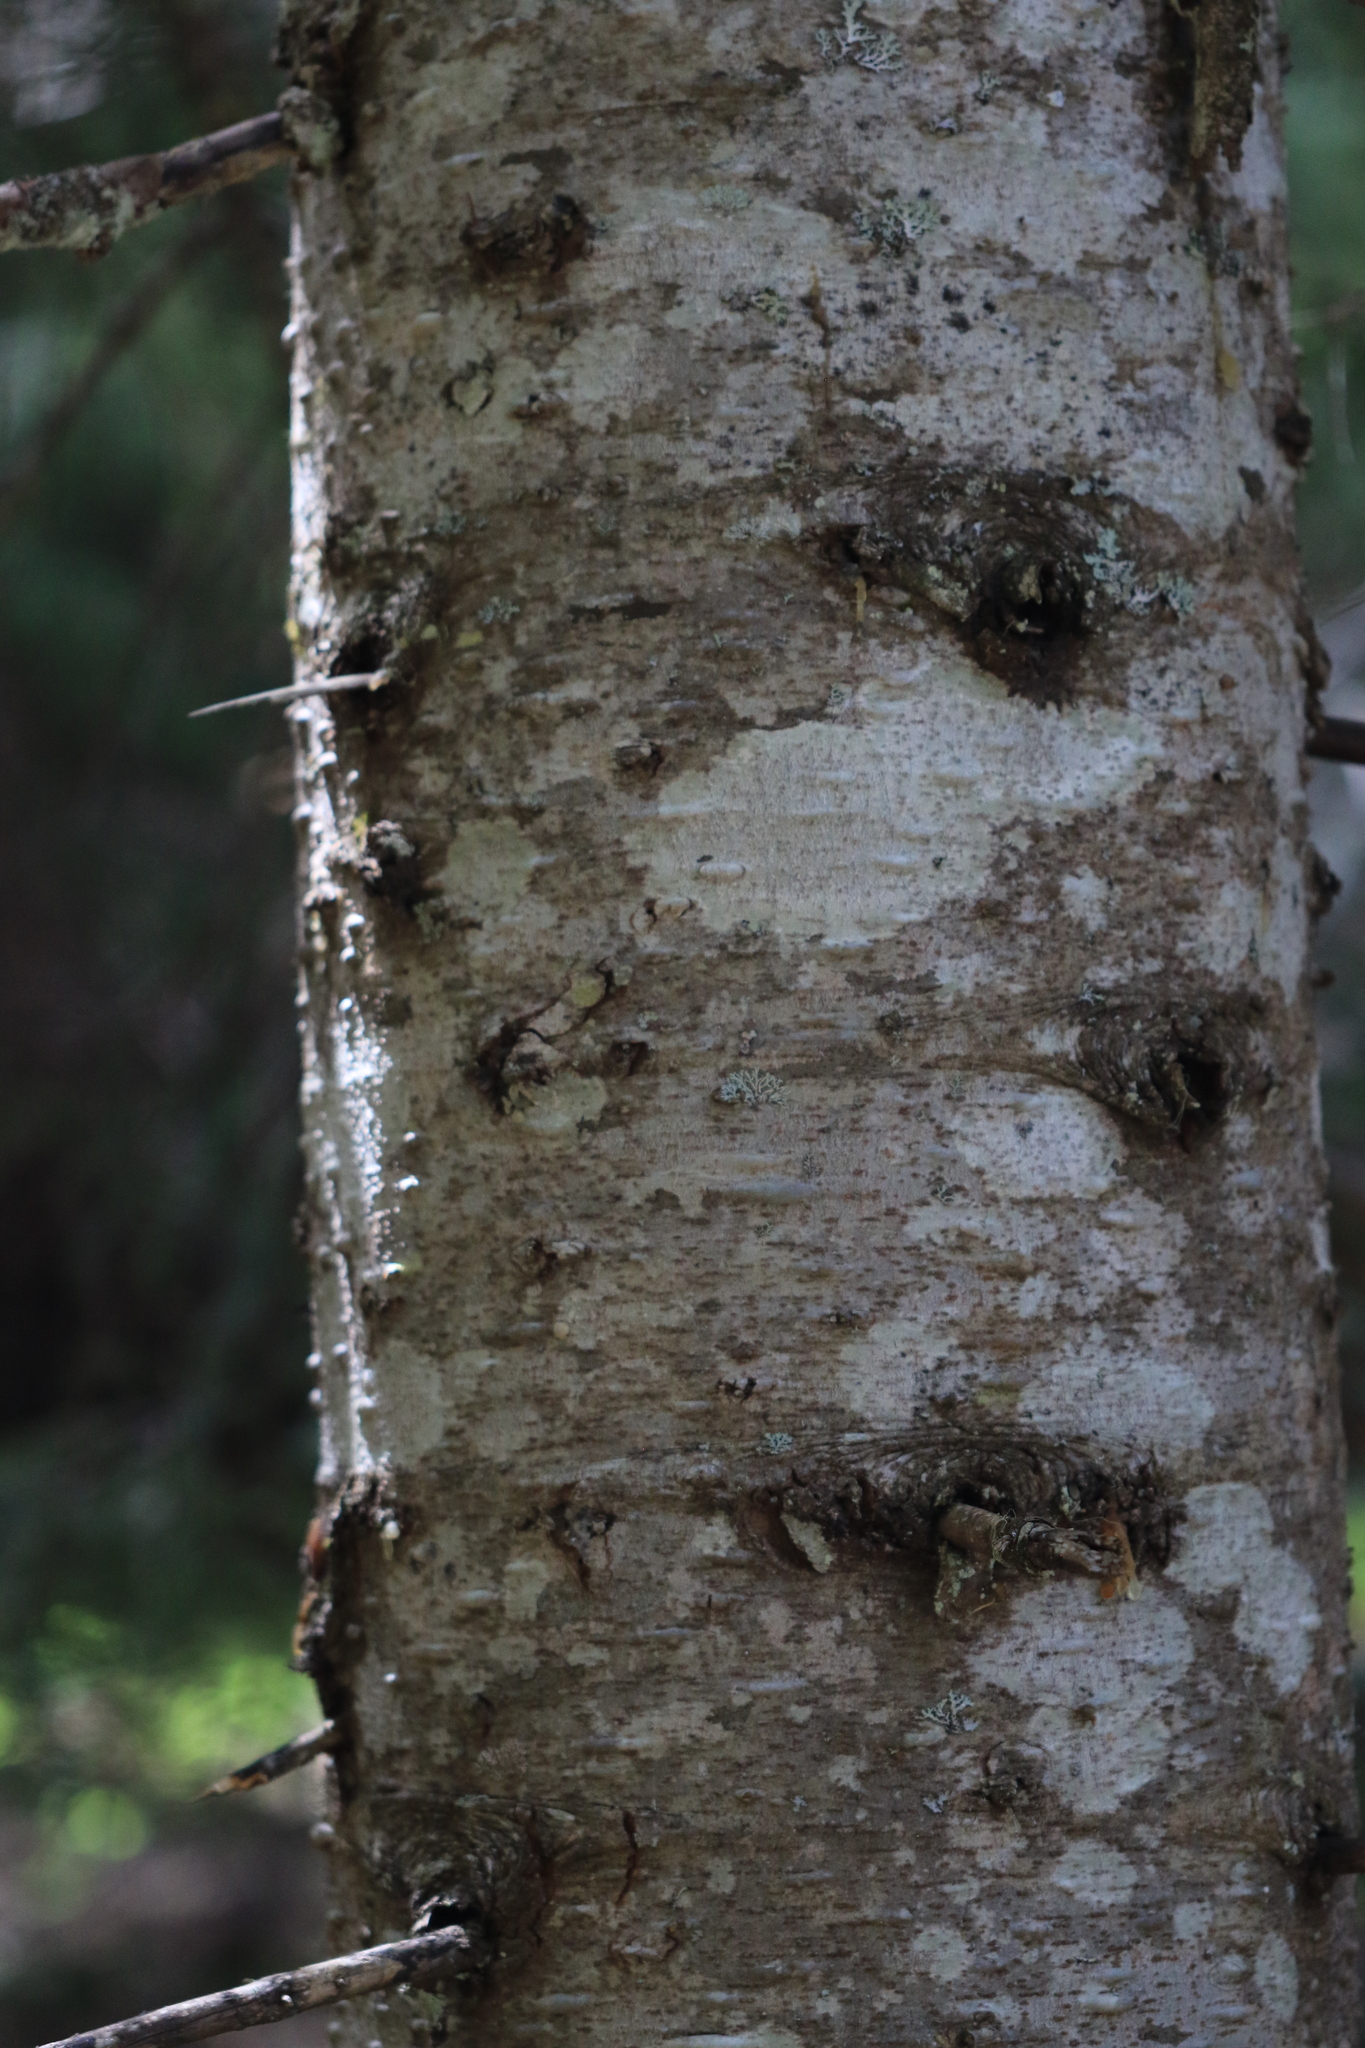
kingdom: Plantae
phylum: Tracheophyta
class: Pinopsida
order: Pinales
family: Pinaceae
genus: Abies
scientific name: Abies amabilis
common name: Pacific silver fir
